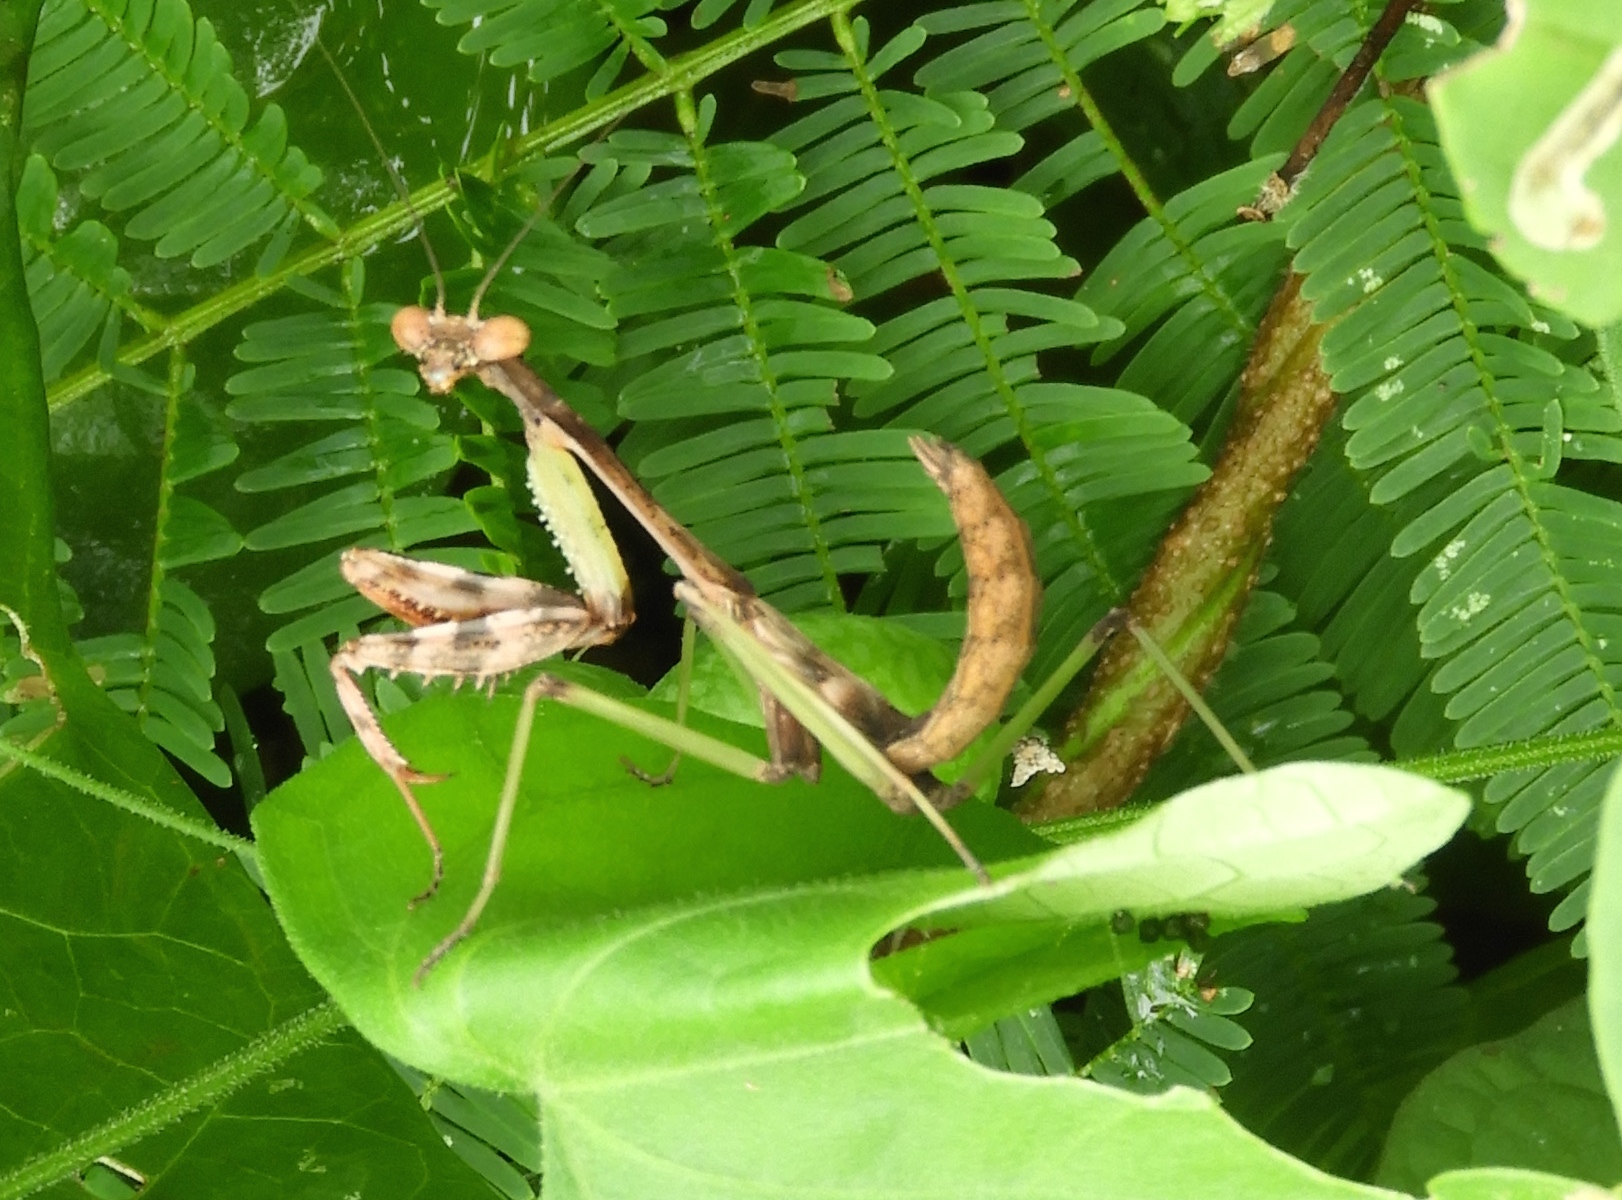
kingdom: Animalia
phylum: Arthropoda
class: Insecta
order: Mantodea
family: Mantidae
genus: Stagmomantis
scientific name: Stagmomantis limbata
